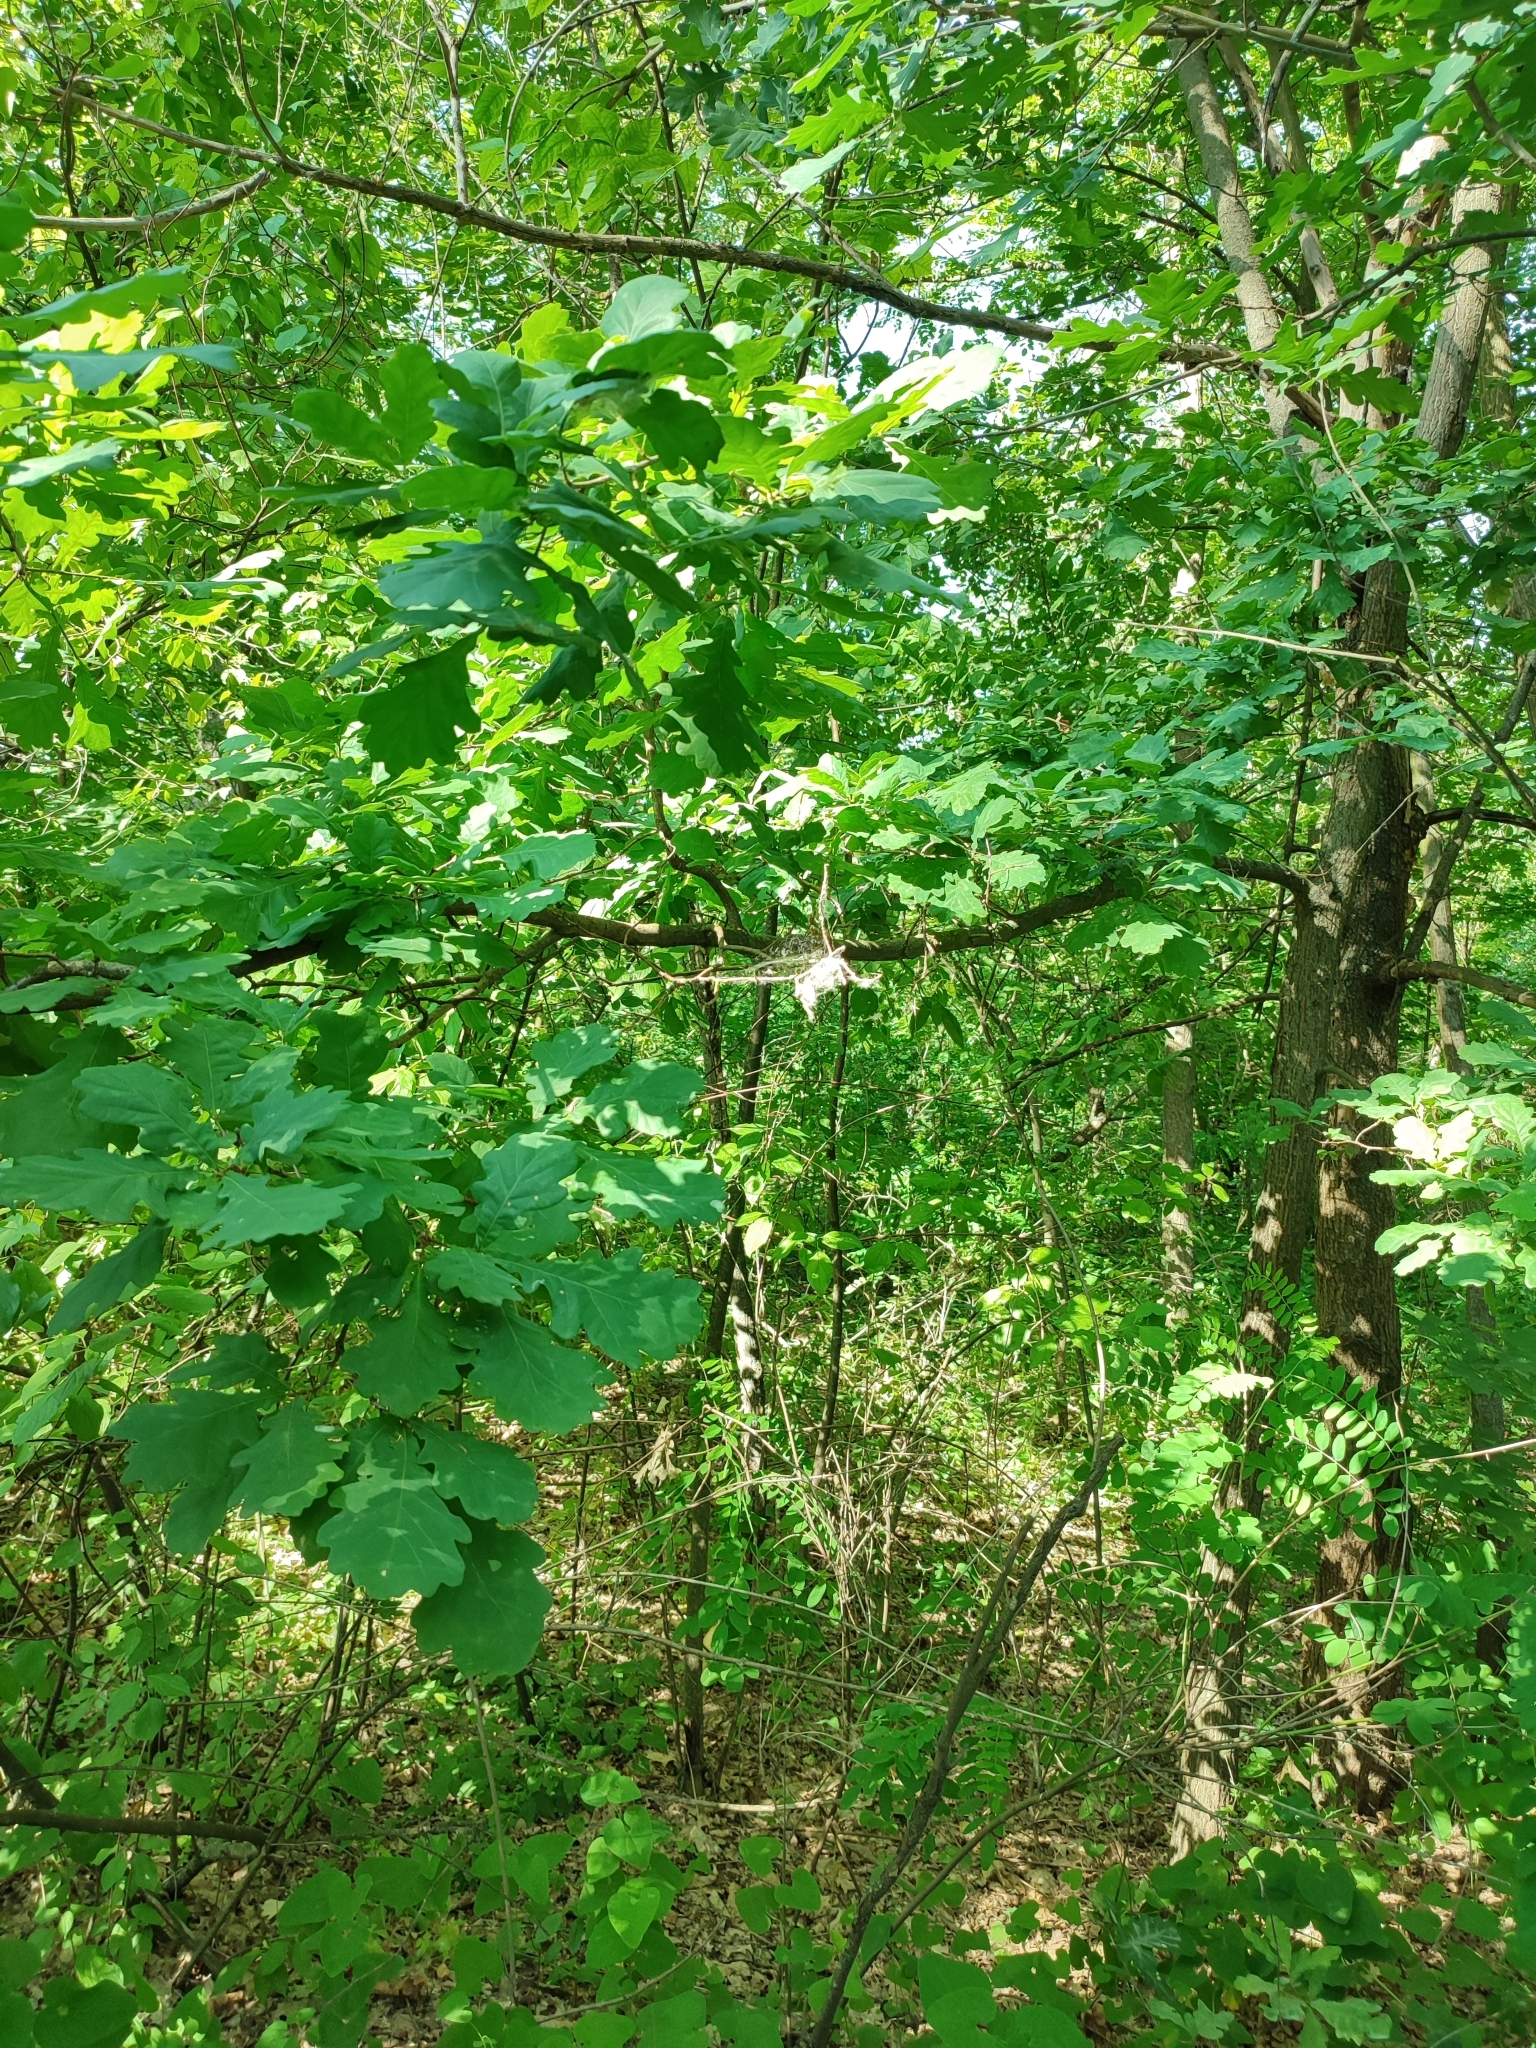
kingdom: Plantae
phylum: Tracheophyta
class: Magnoliopsida
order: Fagales
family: Fagaceae
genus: Quercus
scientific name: Quercus robur
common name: Pedunculate oak
